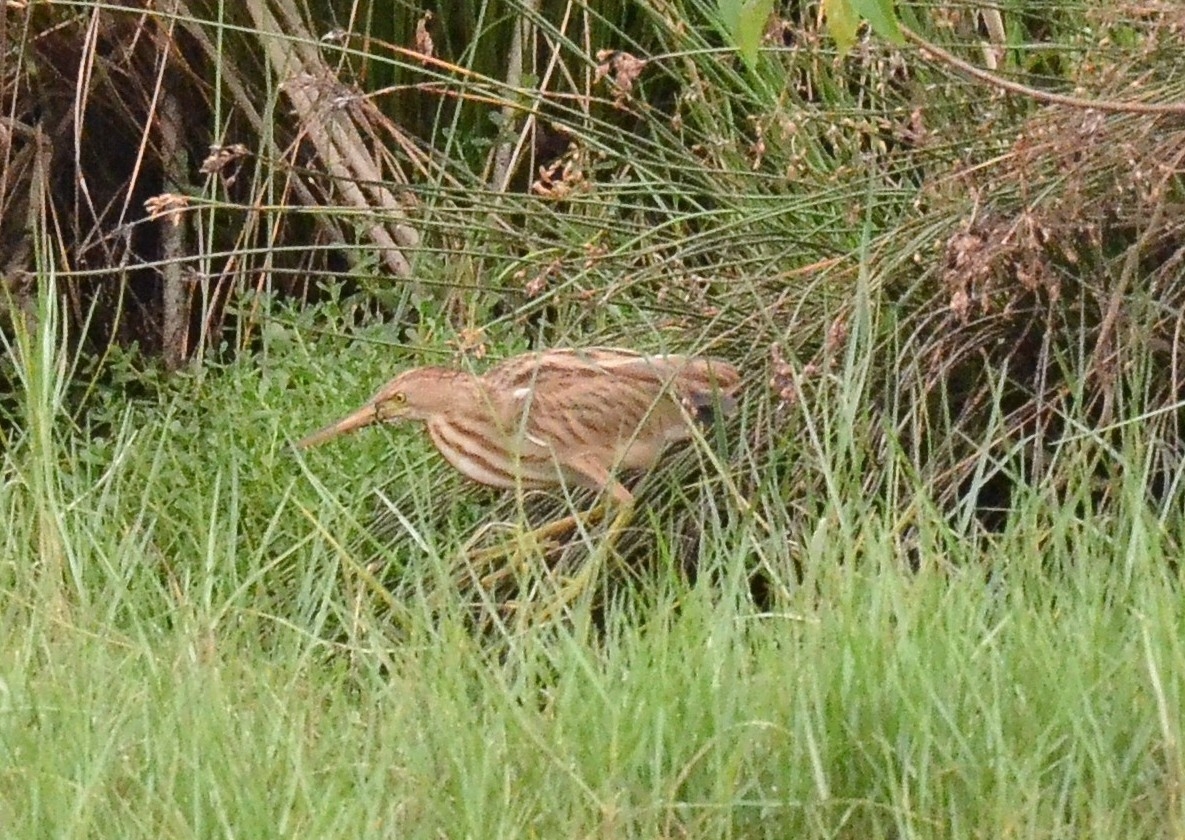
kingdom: Animalia
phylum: Chordata
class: Aves
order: Pelecaniformes
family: Ardeidae
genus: Ixobrychus
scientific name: Ixobrychus sinensis
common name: Yellow bittern
